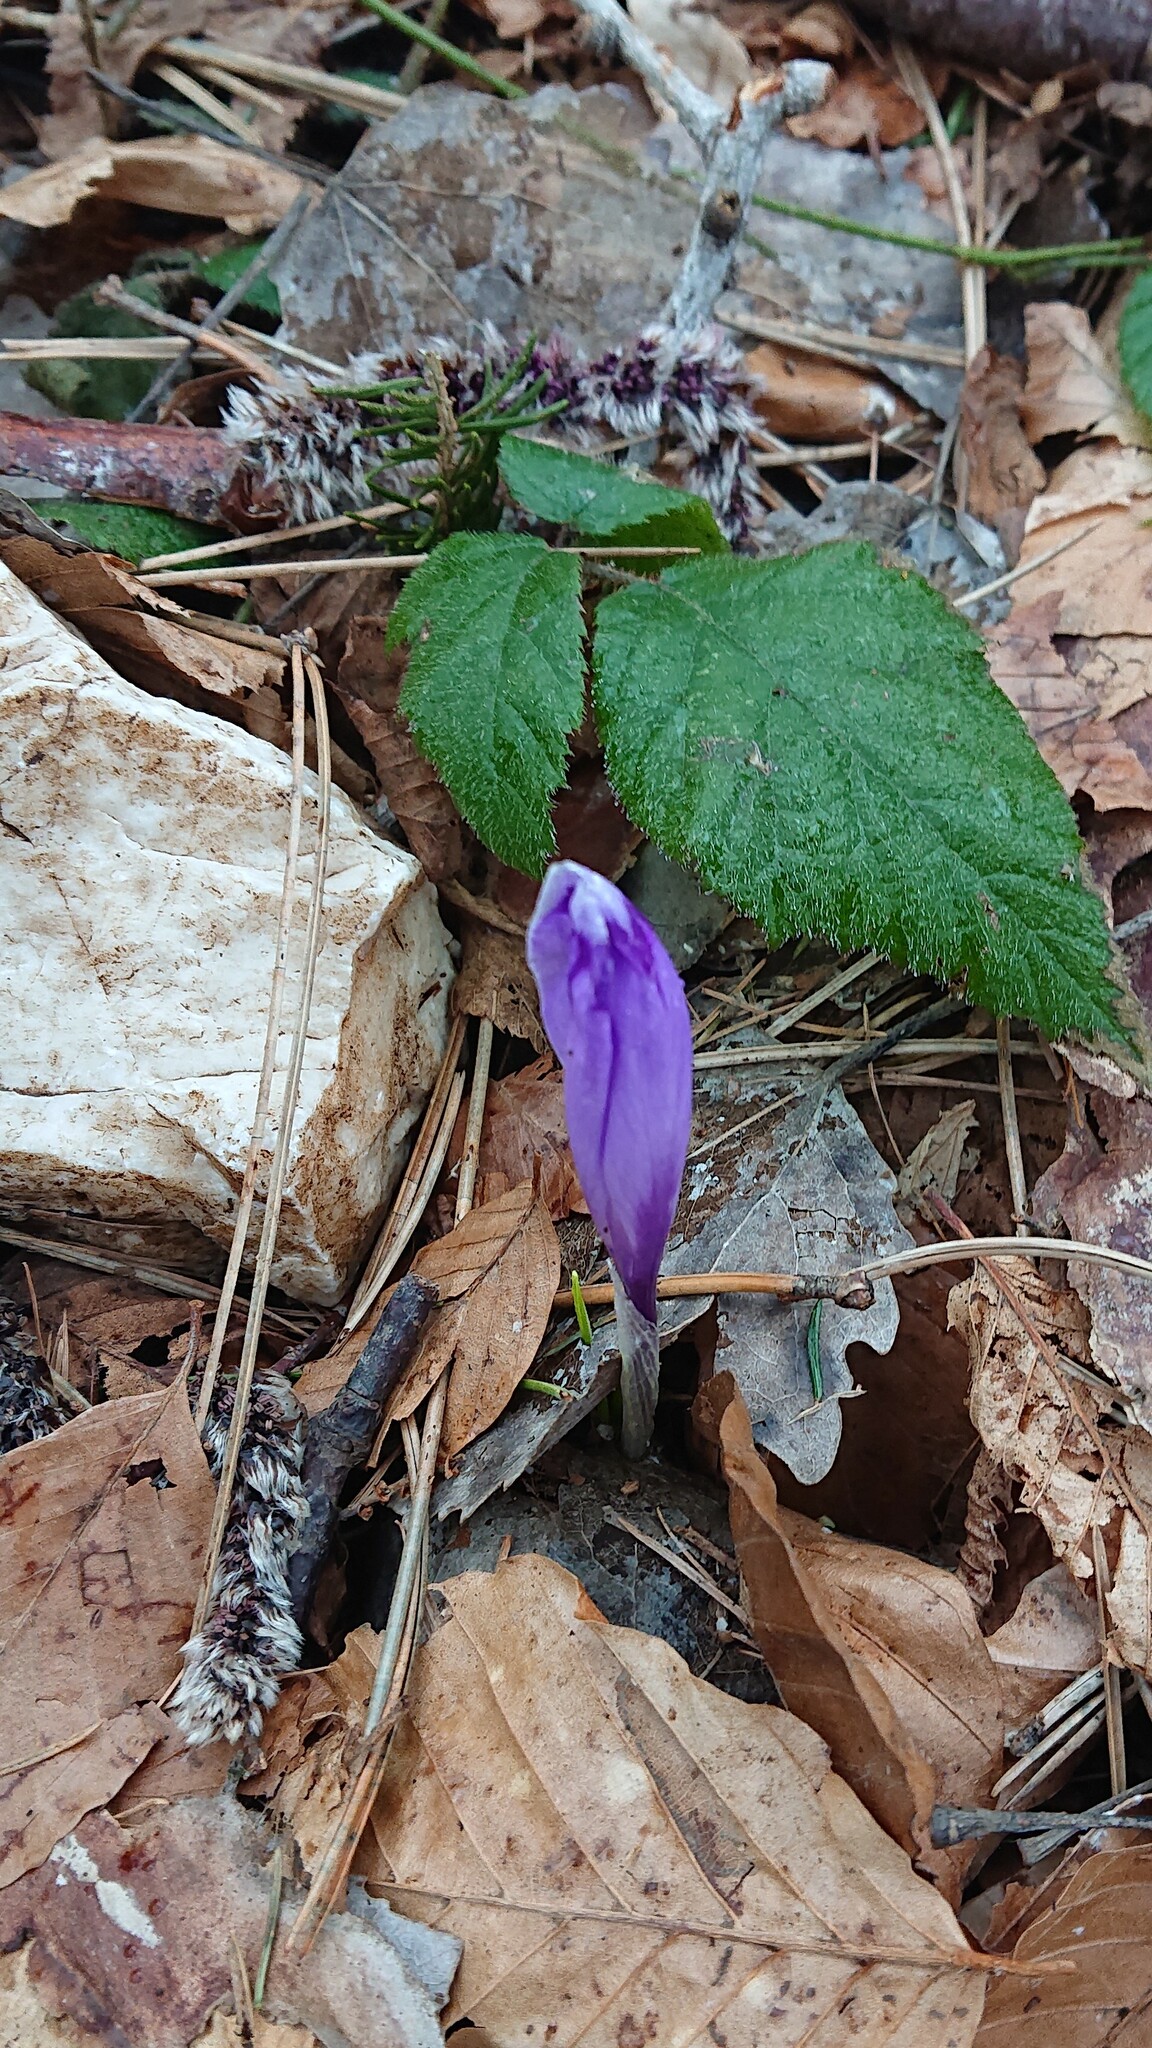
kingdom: Plantae
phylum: Tracheophyta
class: Liliopsida
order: Asparagales
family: Iridaceae
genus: Crocus
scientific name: Crocus heuffelianus
